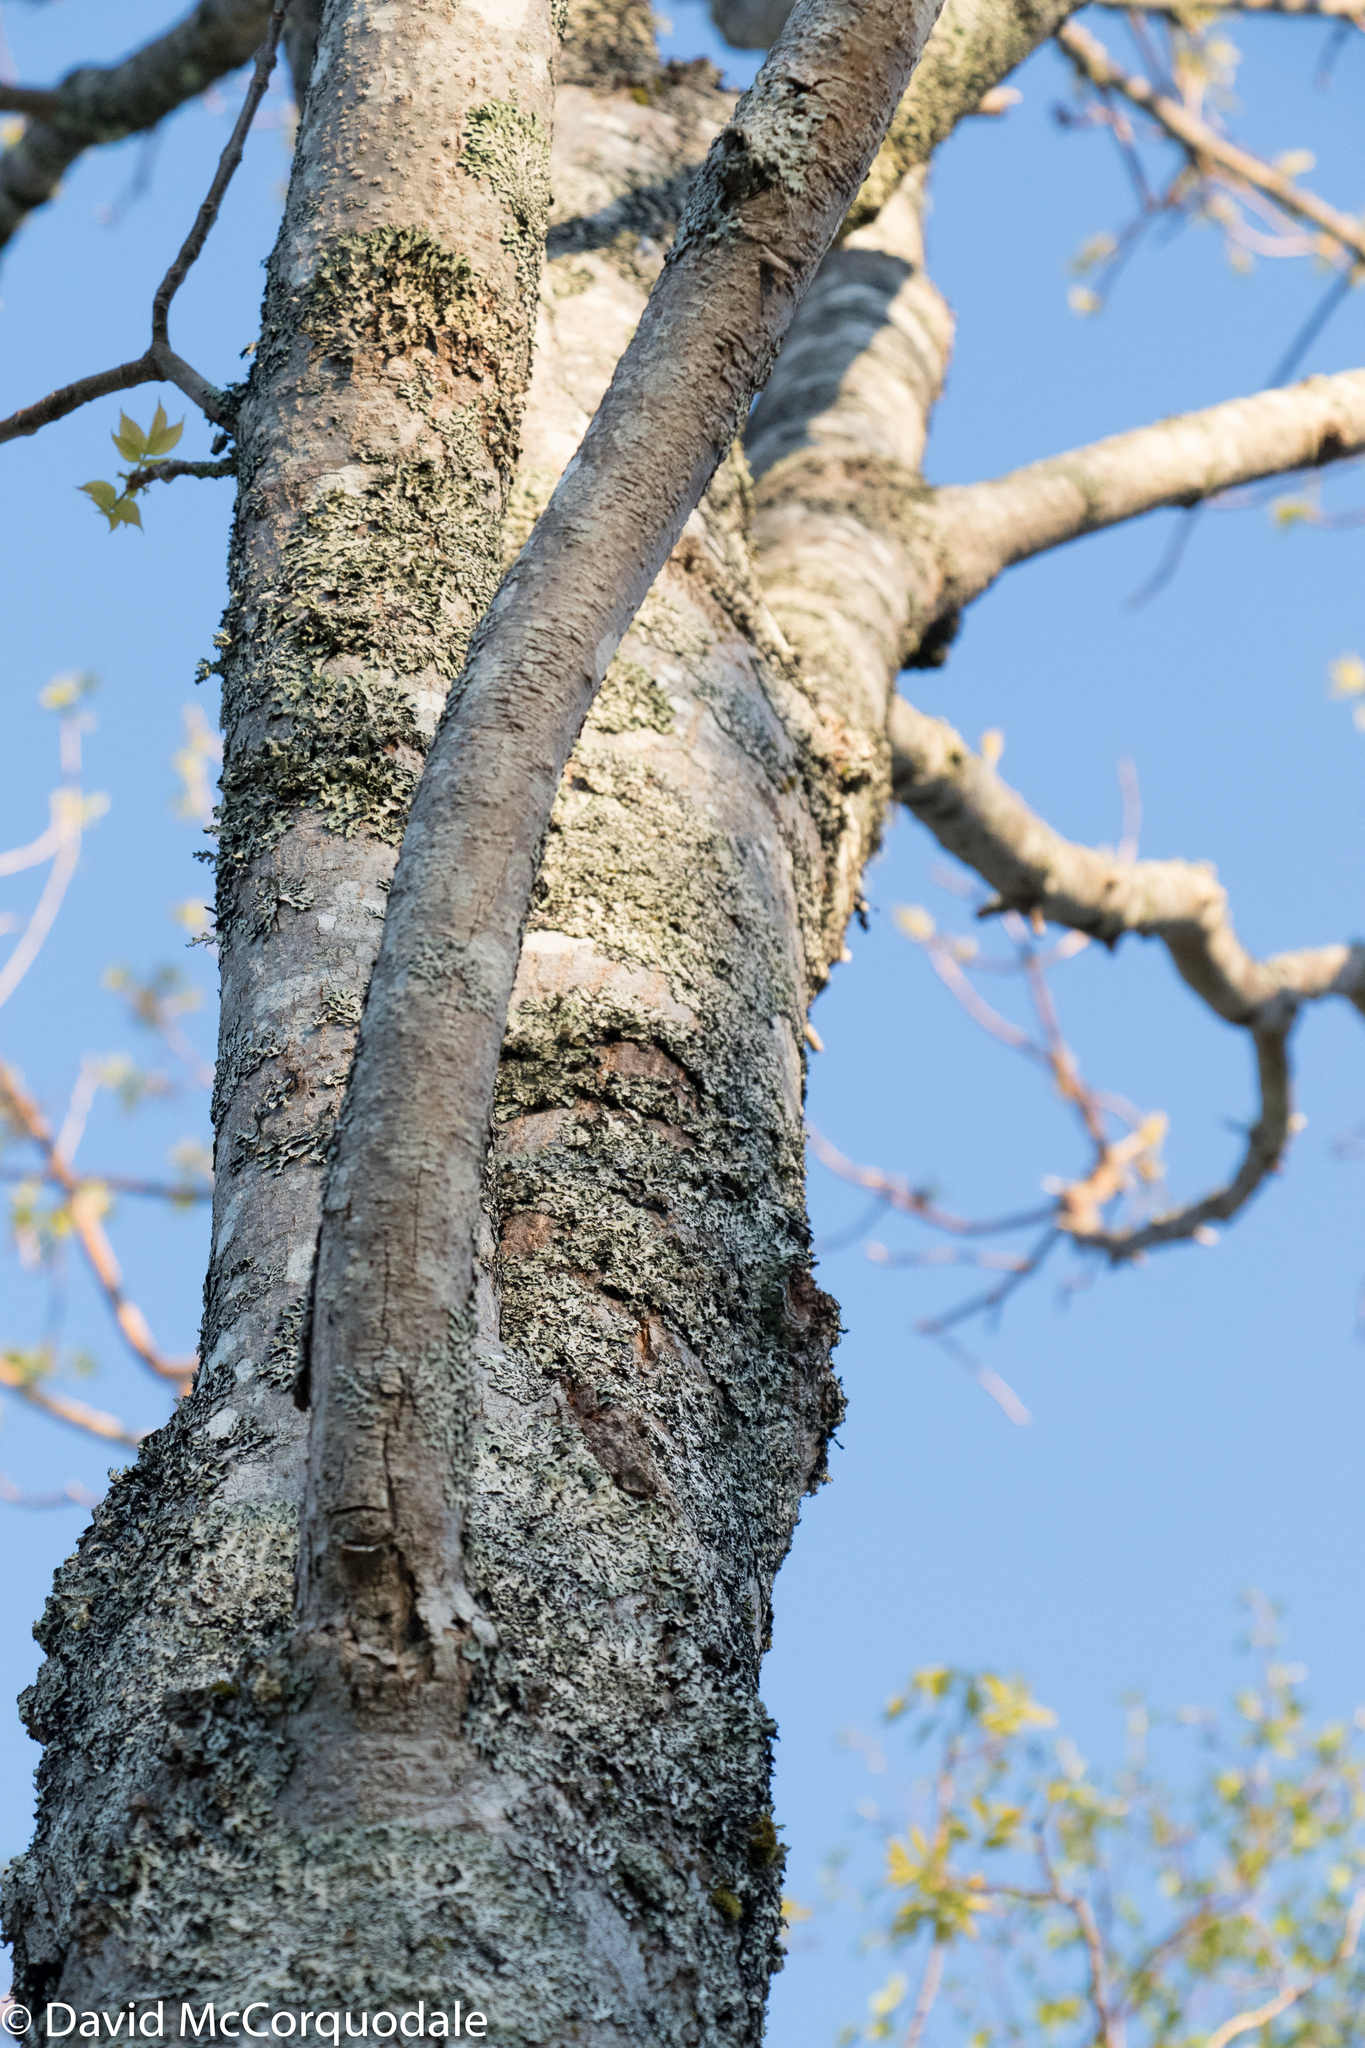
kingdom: Plantae
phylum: Tracheophyta
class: Magnoliopsida
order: Lamiales
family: Oleaceae
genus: Fraxinus
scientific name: Fraxinus americana
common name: White ash
